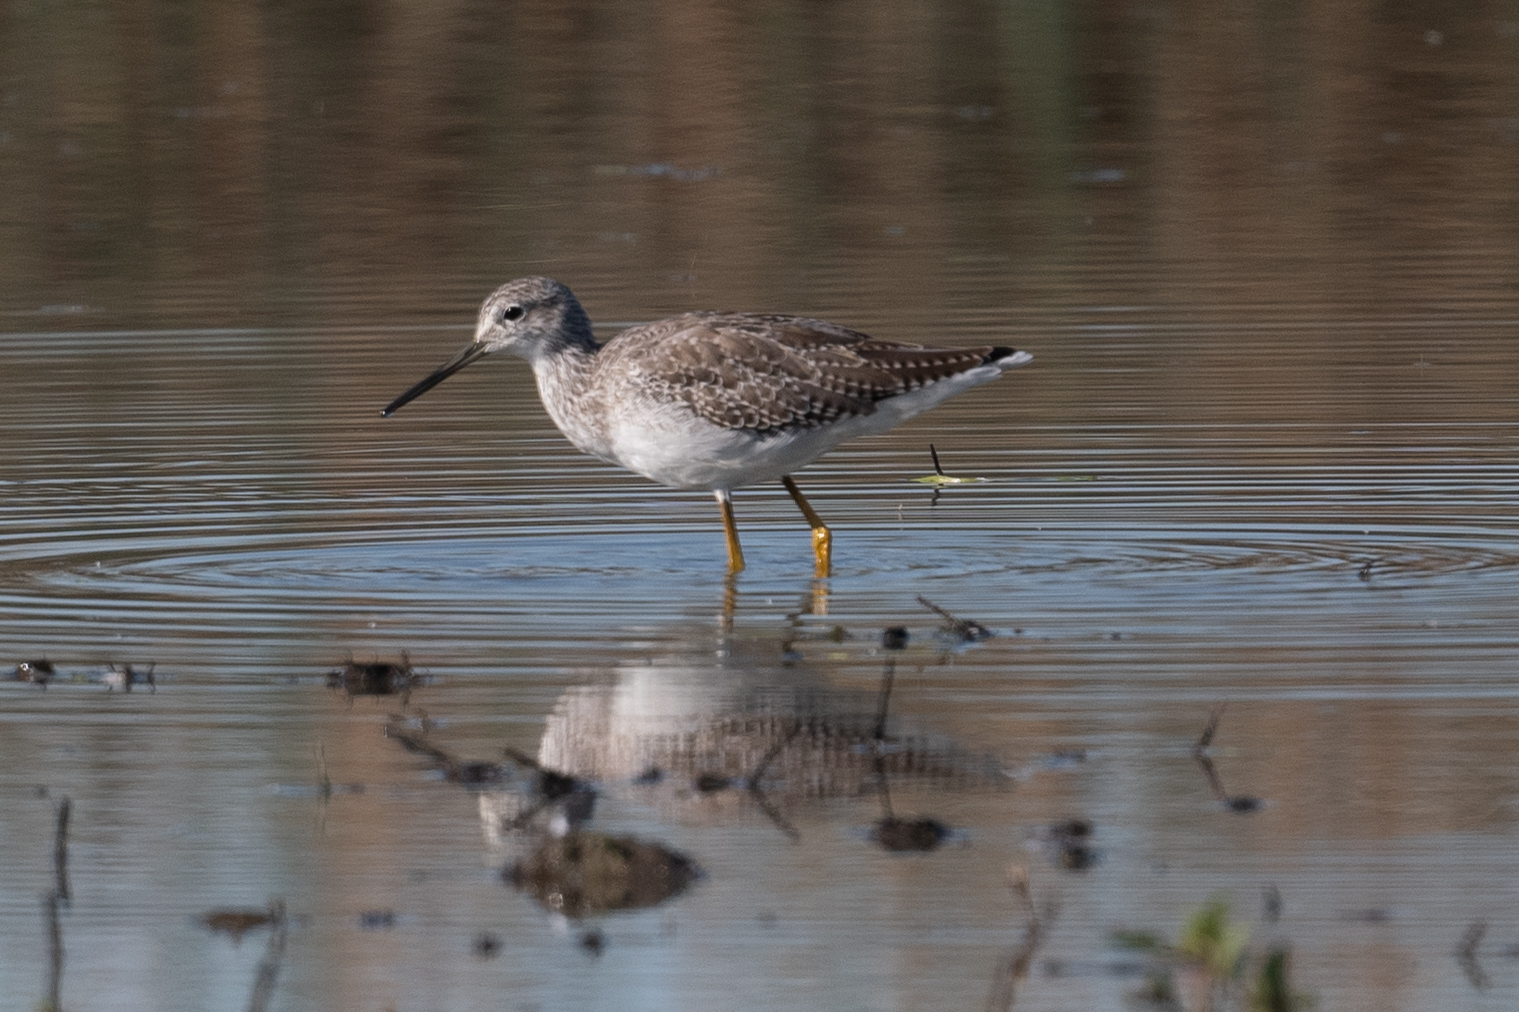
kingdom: Animalia
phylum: Chordata
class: Aves
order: Charadriiformes
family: Scolopacidae
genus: Tringa
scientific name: Tringa melanoleuca
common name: Greater yellowlegs
